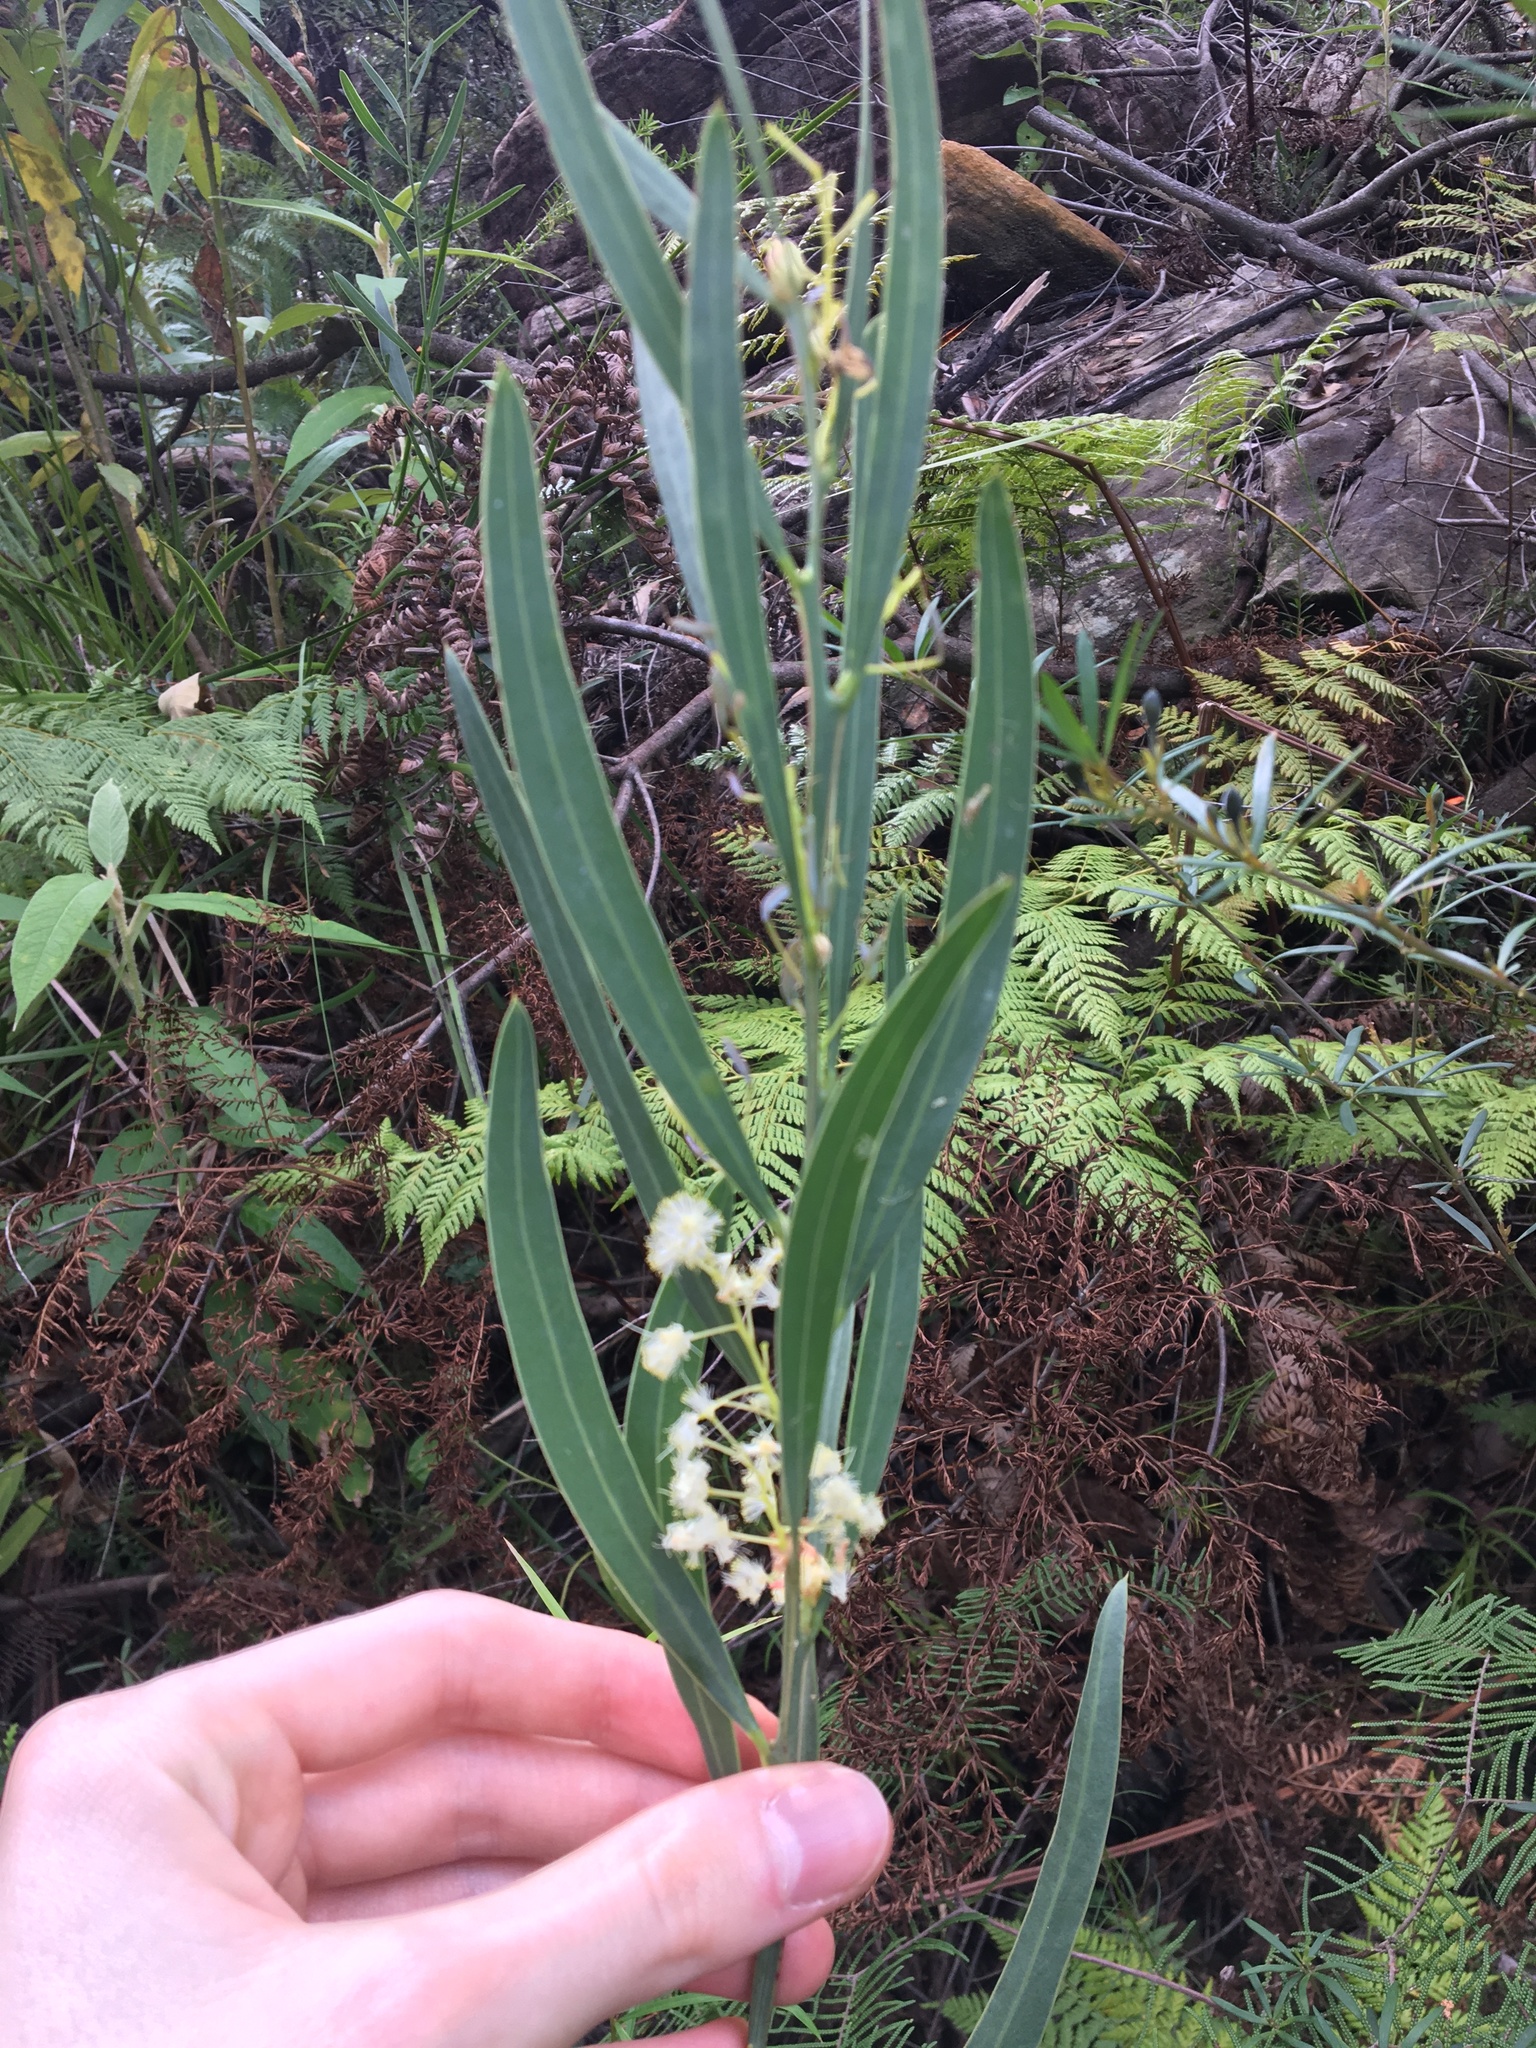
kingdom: Plantae
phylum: Tracheophyta
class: Magnoliopsida
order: Fabales
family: Fabaceae
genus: Acacia
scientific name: Acacia suaveolens
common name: Sweet acacia
